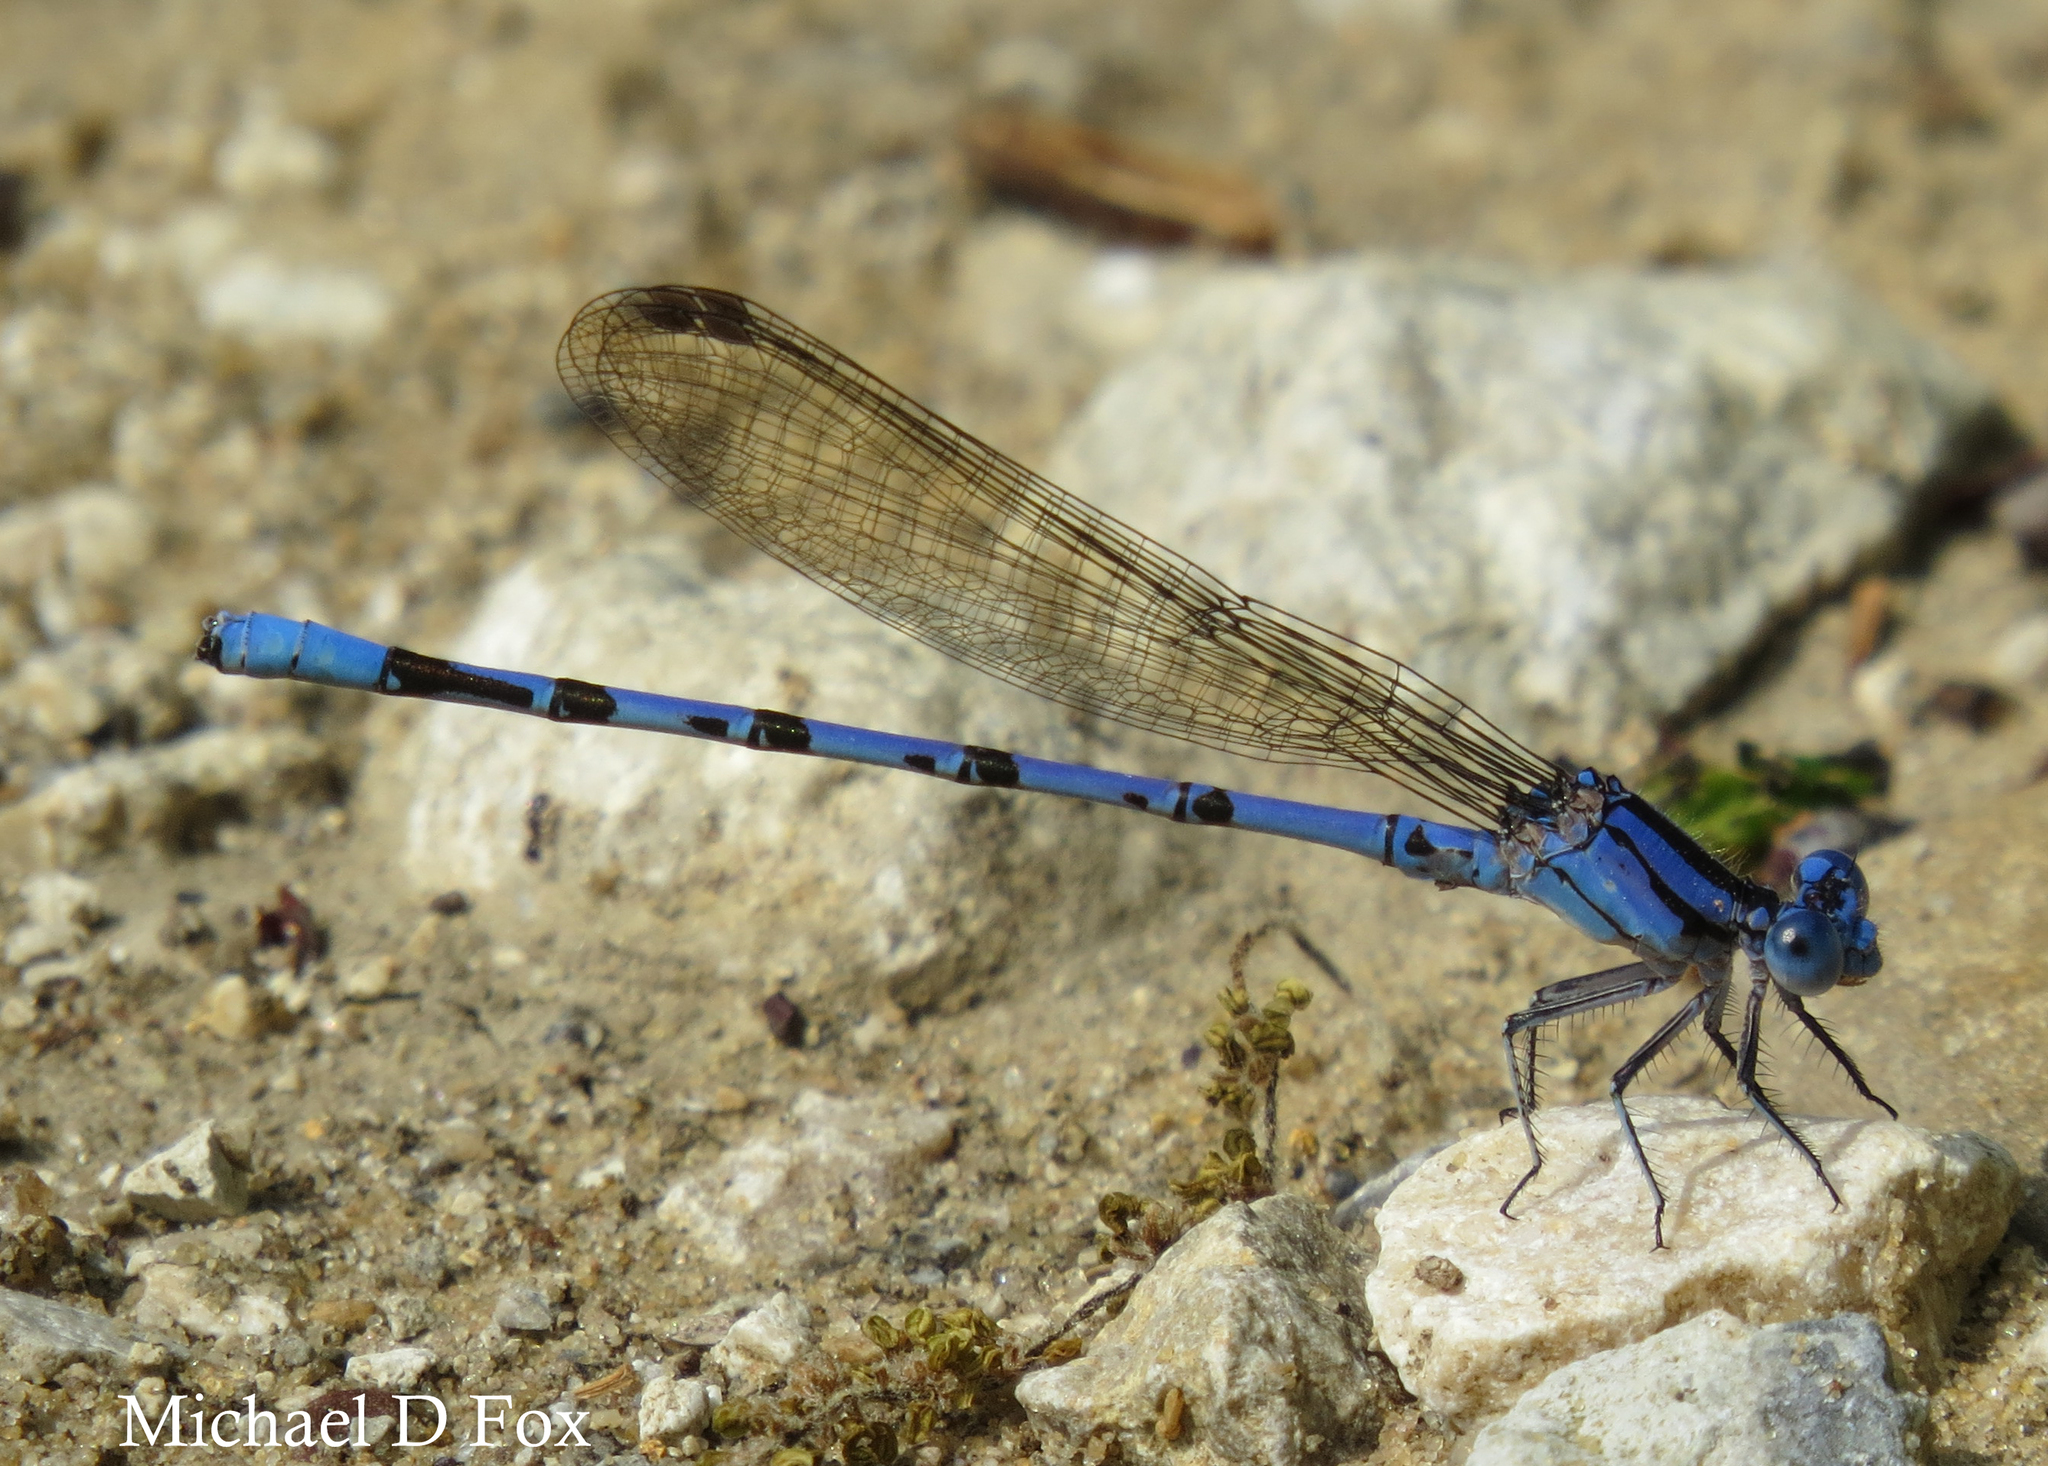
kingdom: Animalia
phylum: Arthropoda
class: Insecta
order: Odonata
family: Coenagrionidae
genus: Argia
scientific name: Argia funebris
